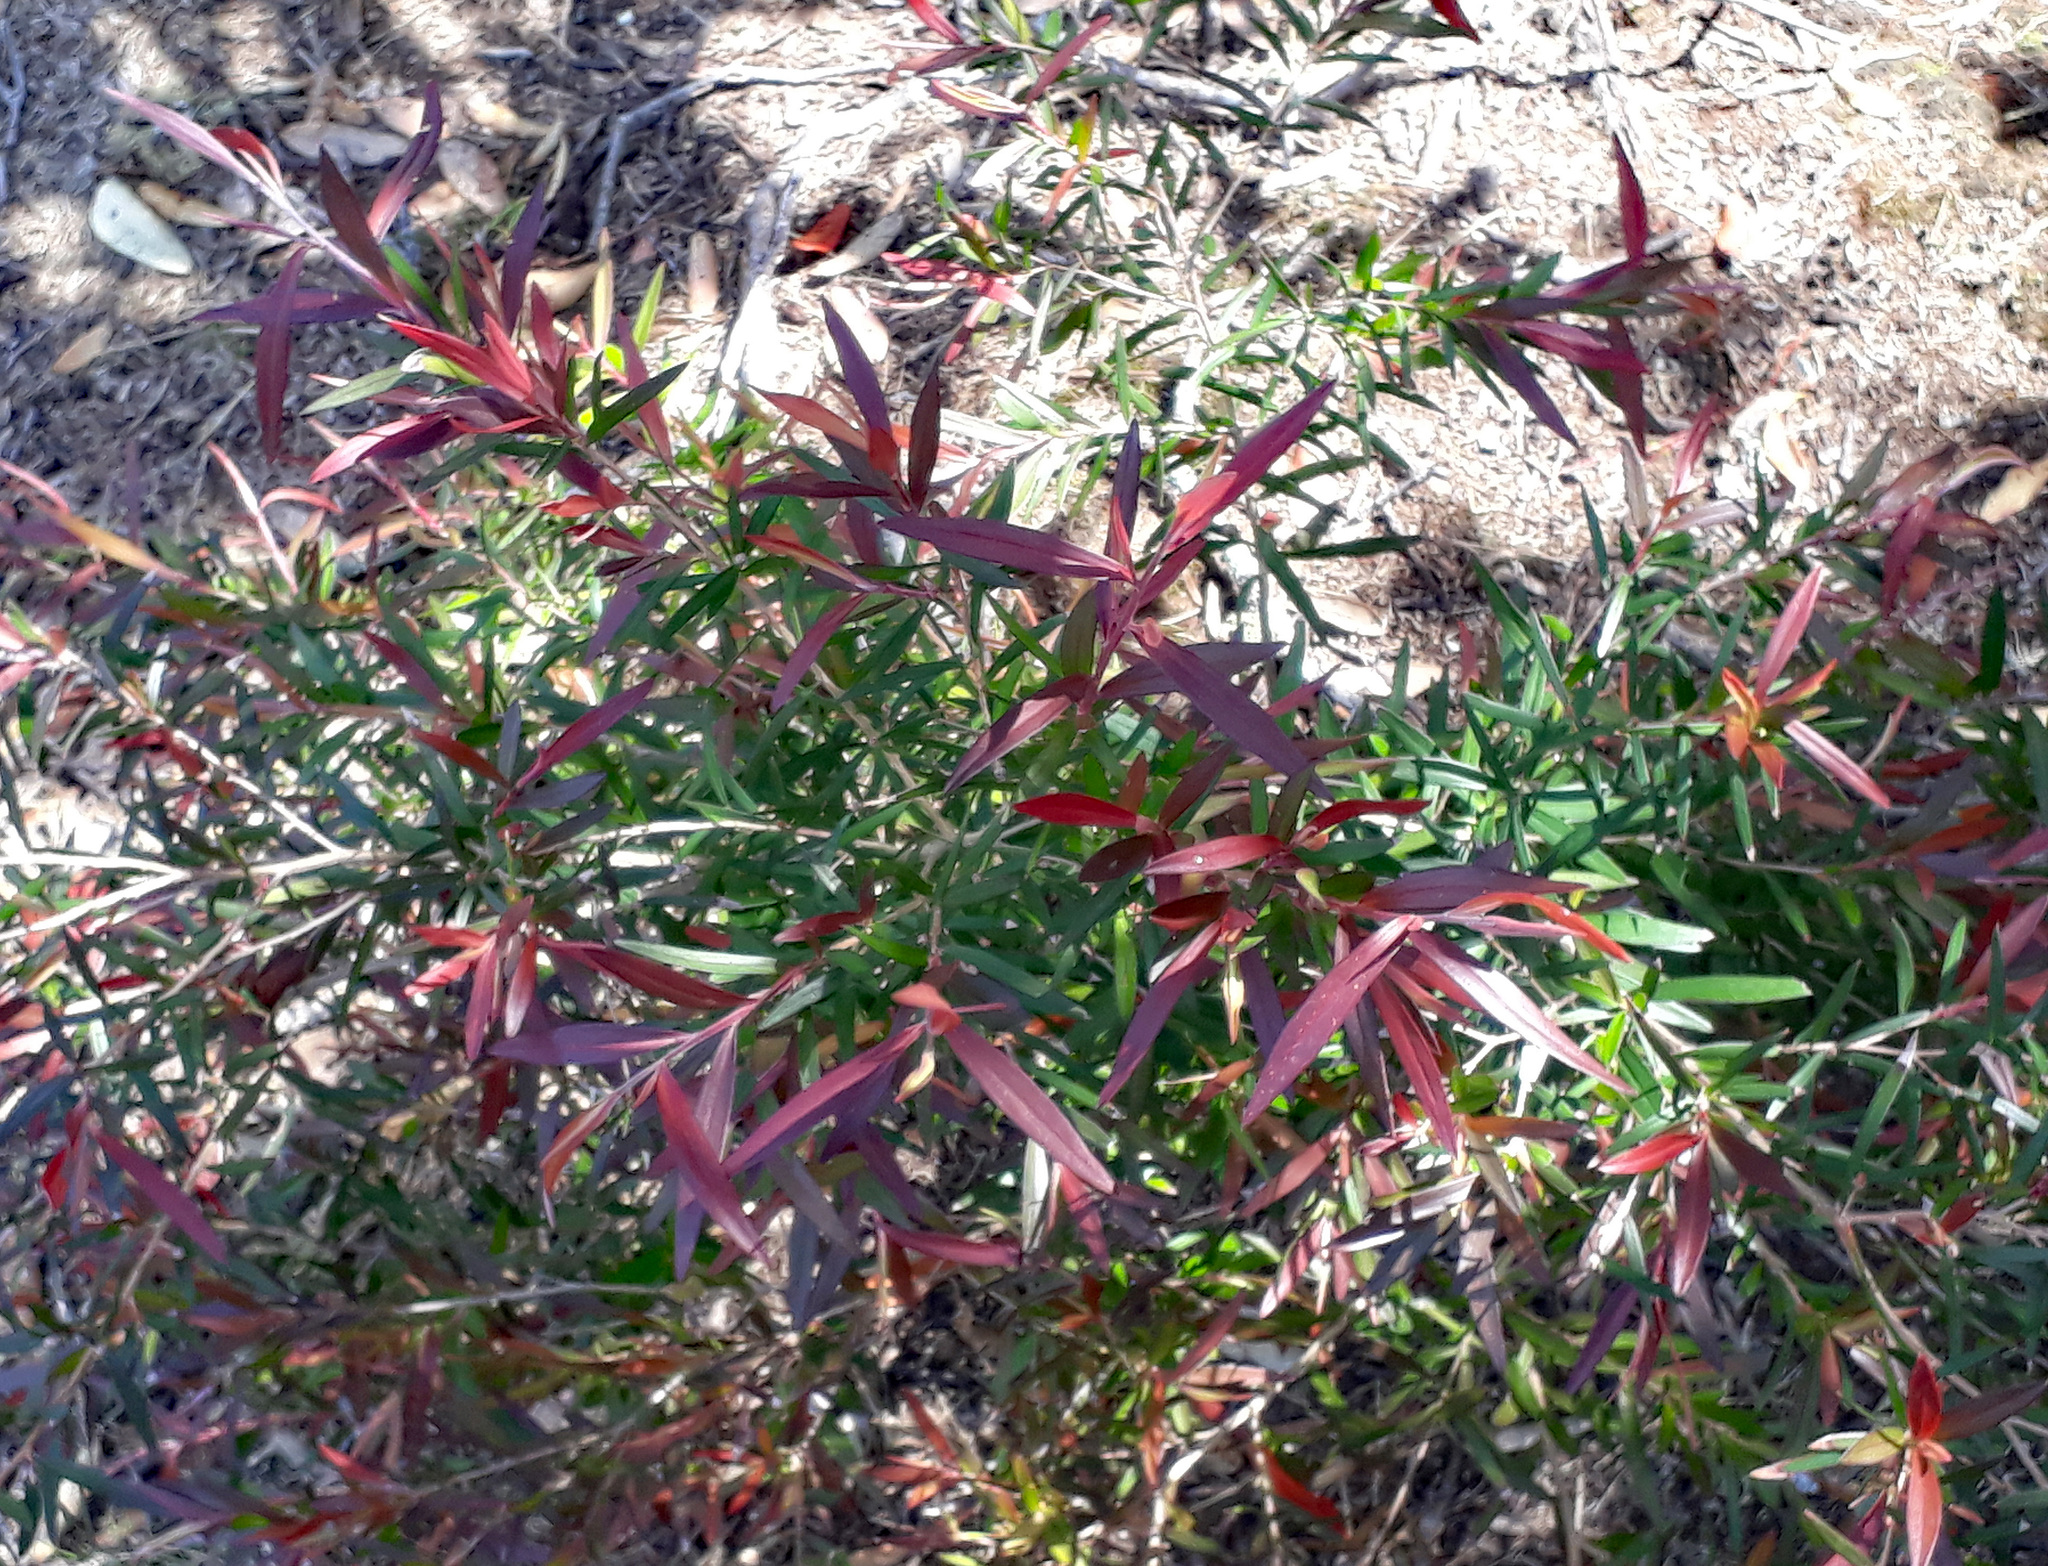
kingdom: Plantae
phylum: Tracheophyta
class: Magnoliopsida
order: Myrtales
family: Myrtaceae
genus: Leptospermum
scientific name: Leptospermum morrisonii
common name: Large-leaf yellow teatree
